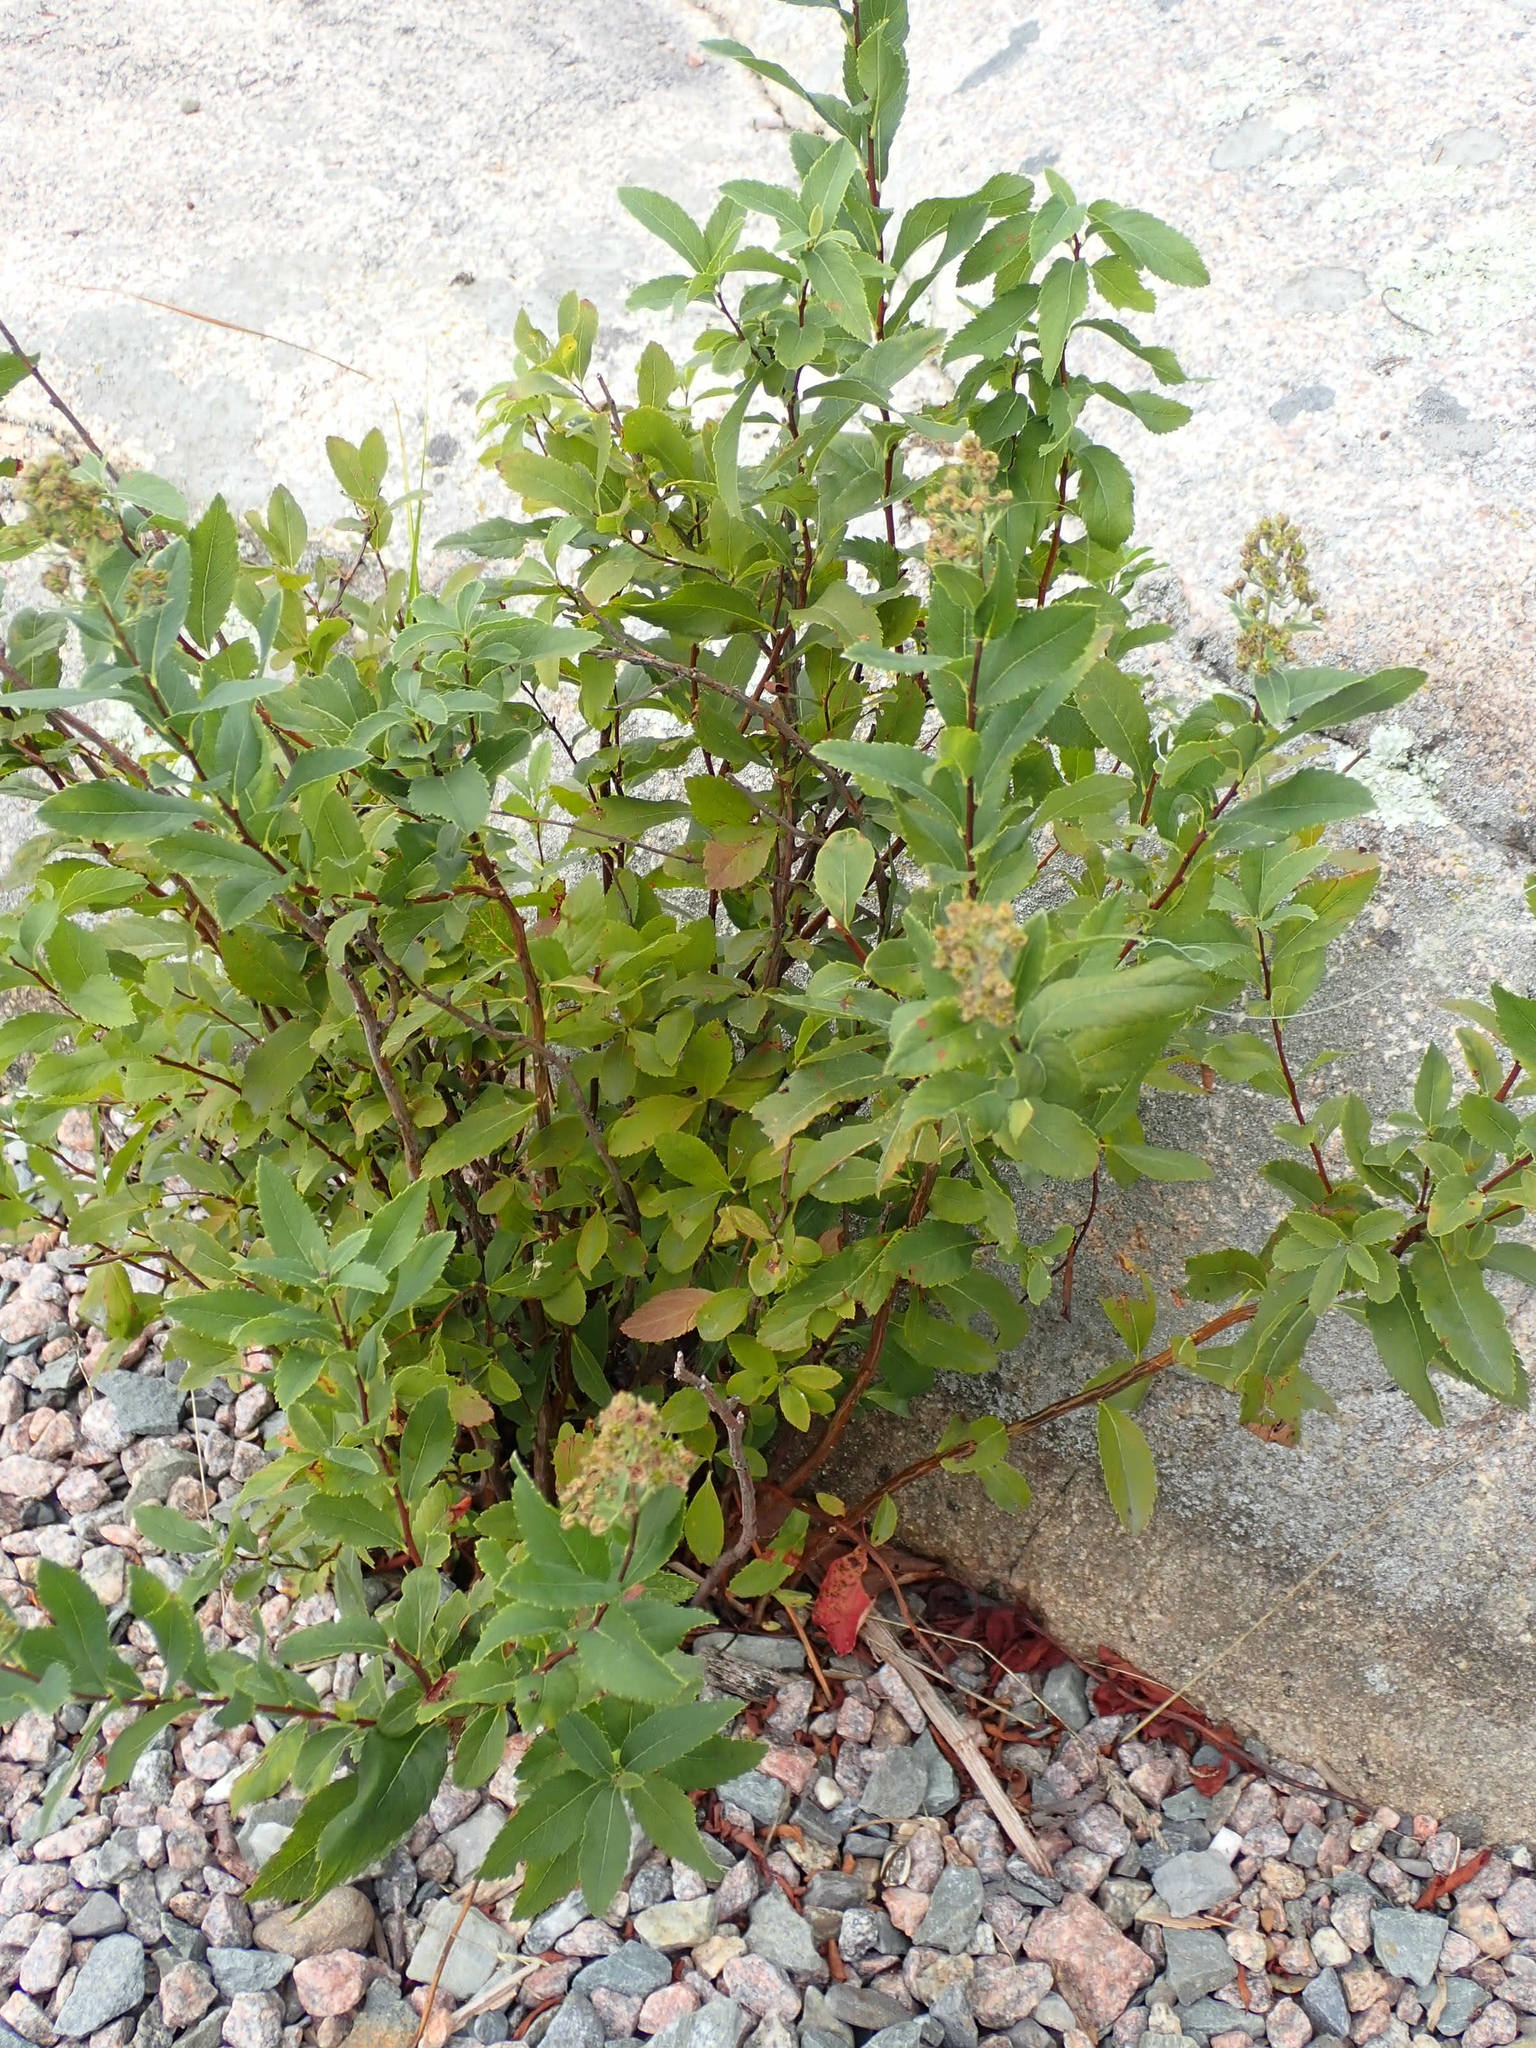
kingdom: Plantae
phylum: Tracheophyta
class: Magnoliopsida
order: Rosales
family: Rosaceae
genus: Spiraea
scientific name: Spiraea alba
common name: Pale bridewort
